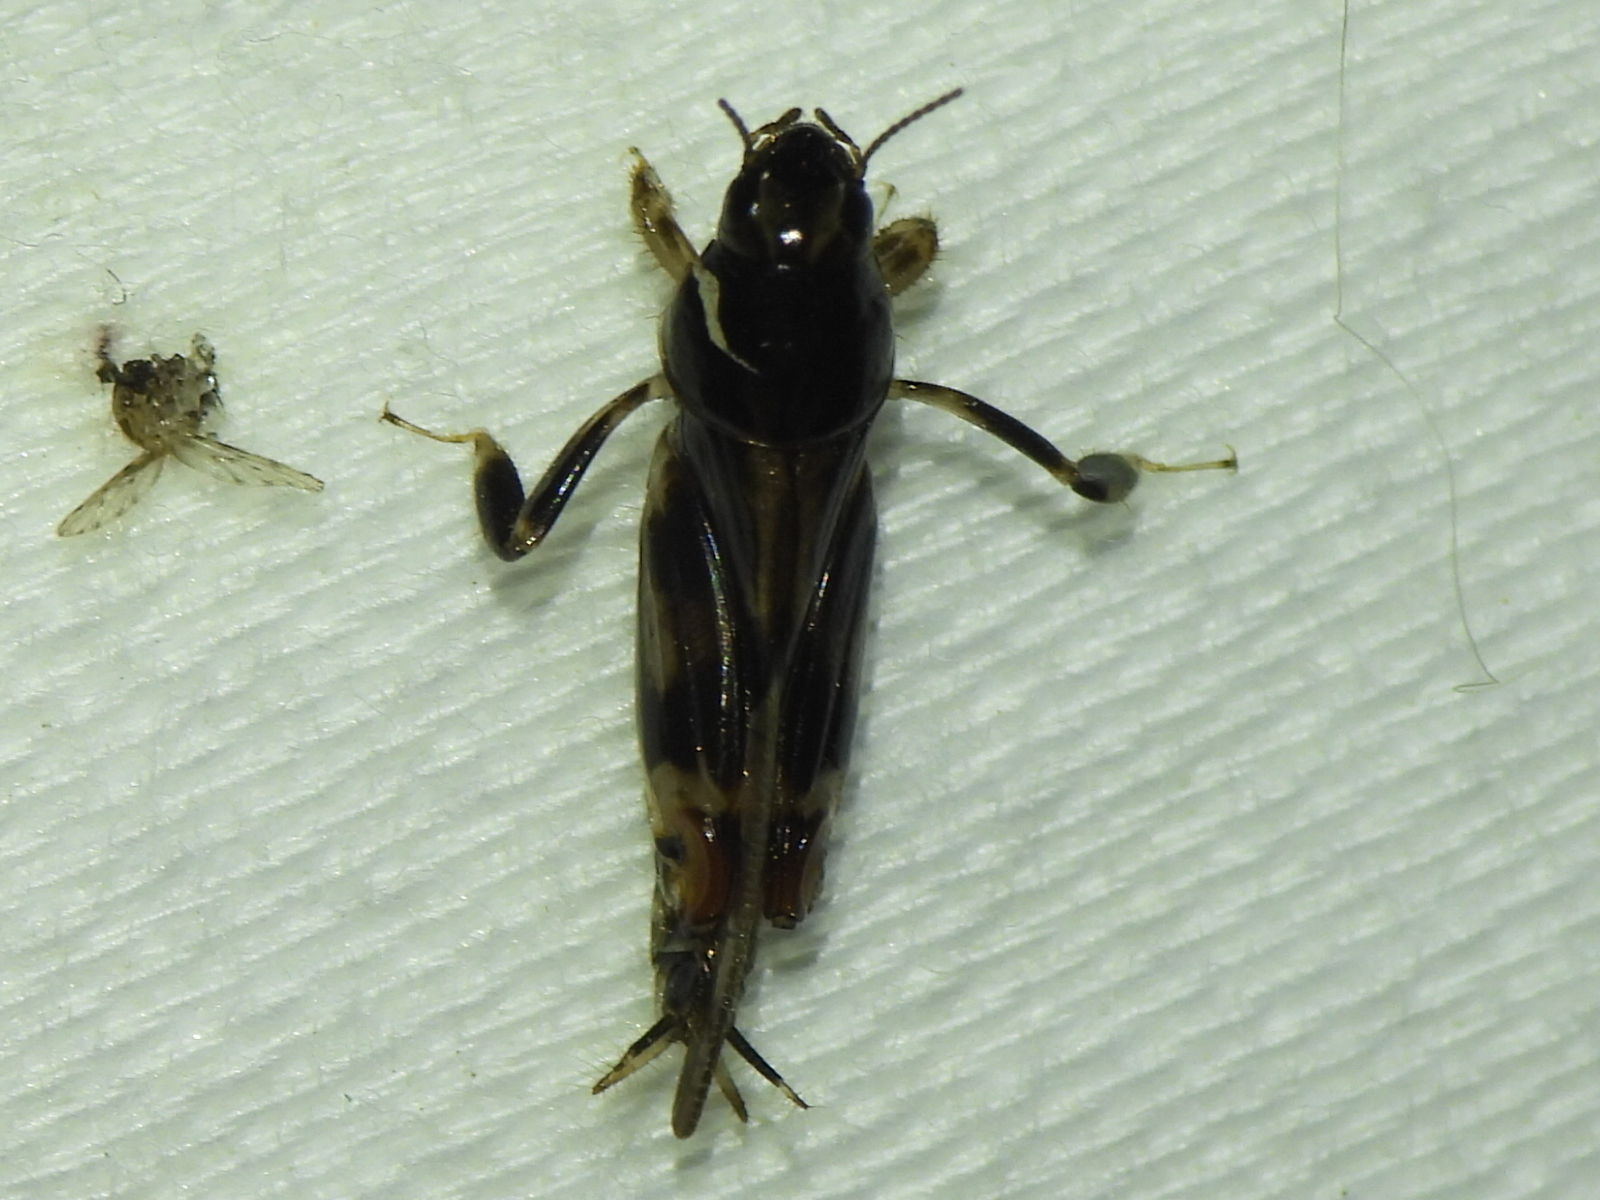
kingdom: Animalia
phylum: Arthropoda
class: Insecta
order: Orthoptera
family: Tridactylidae
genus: Neotridactylus
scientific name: Neotridactylus apicialis
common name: Larger pygmy locust
